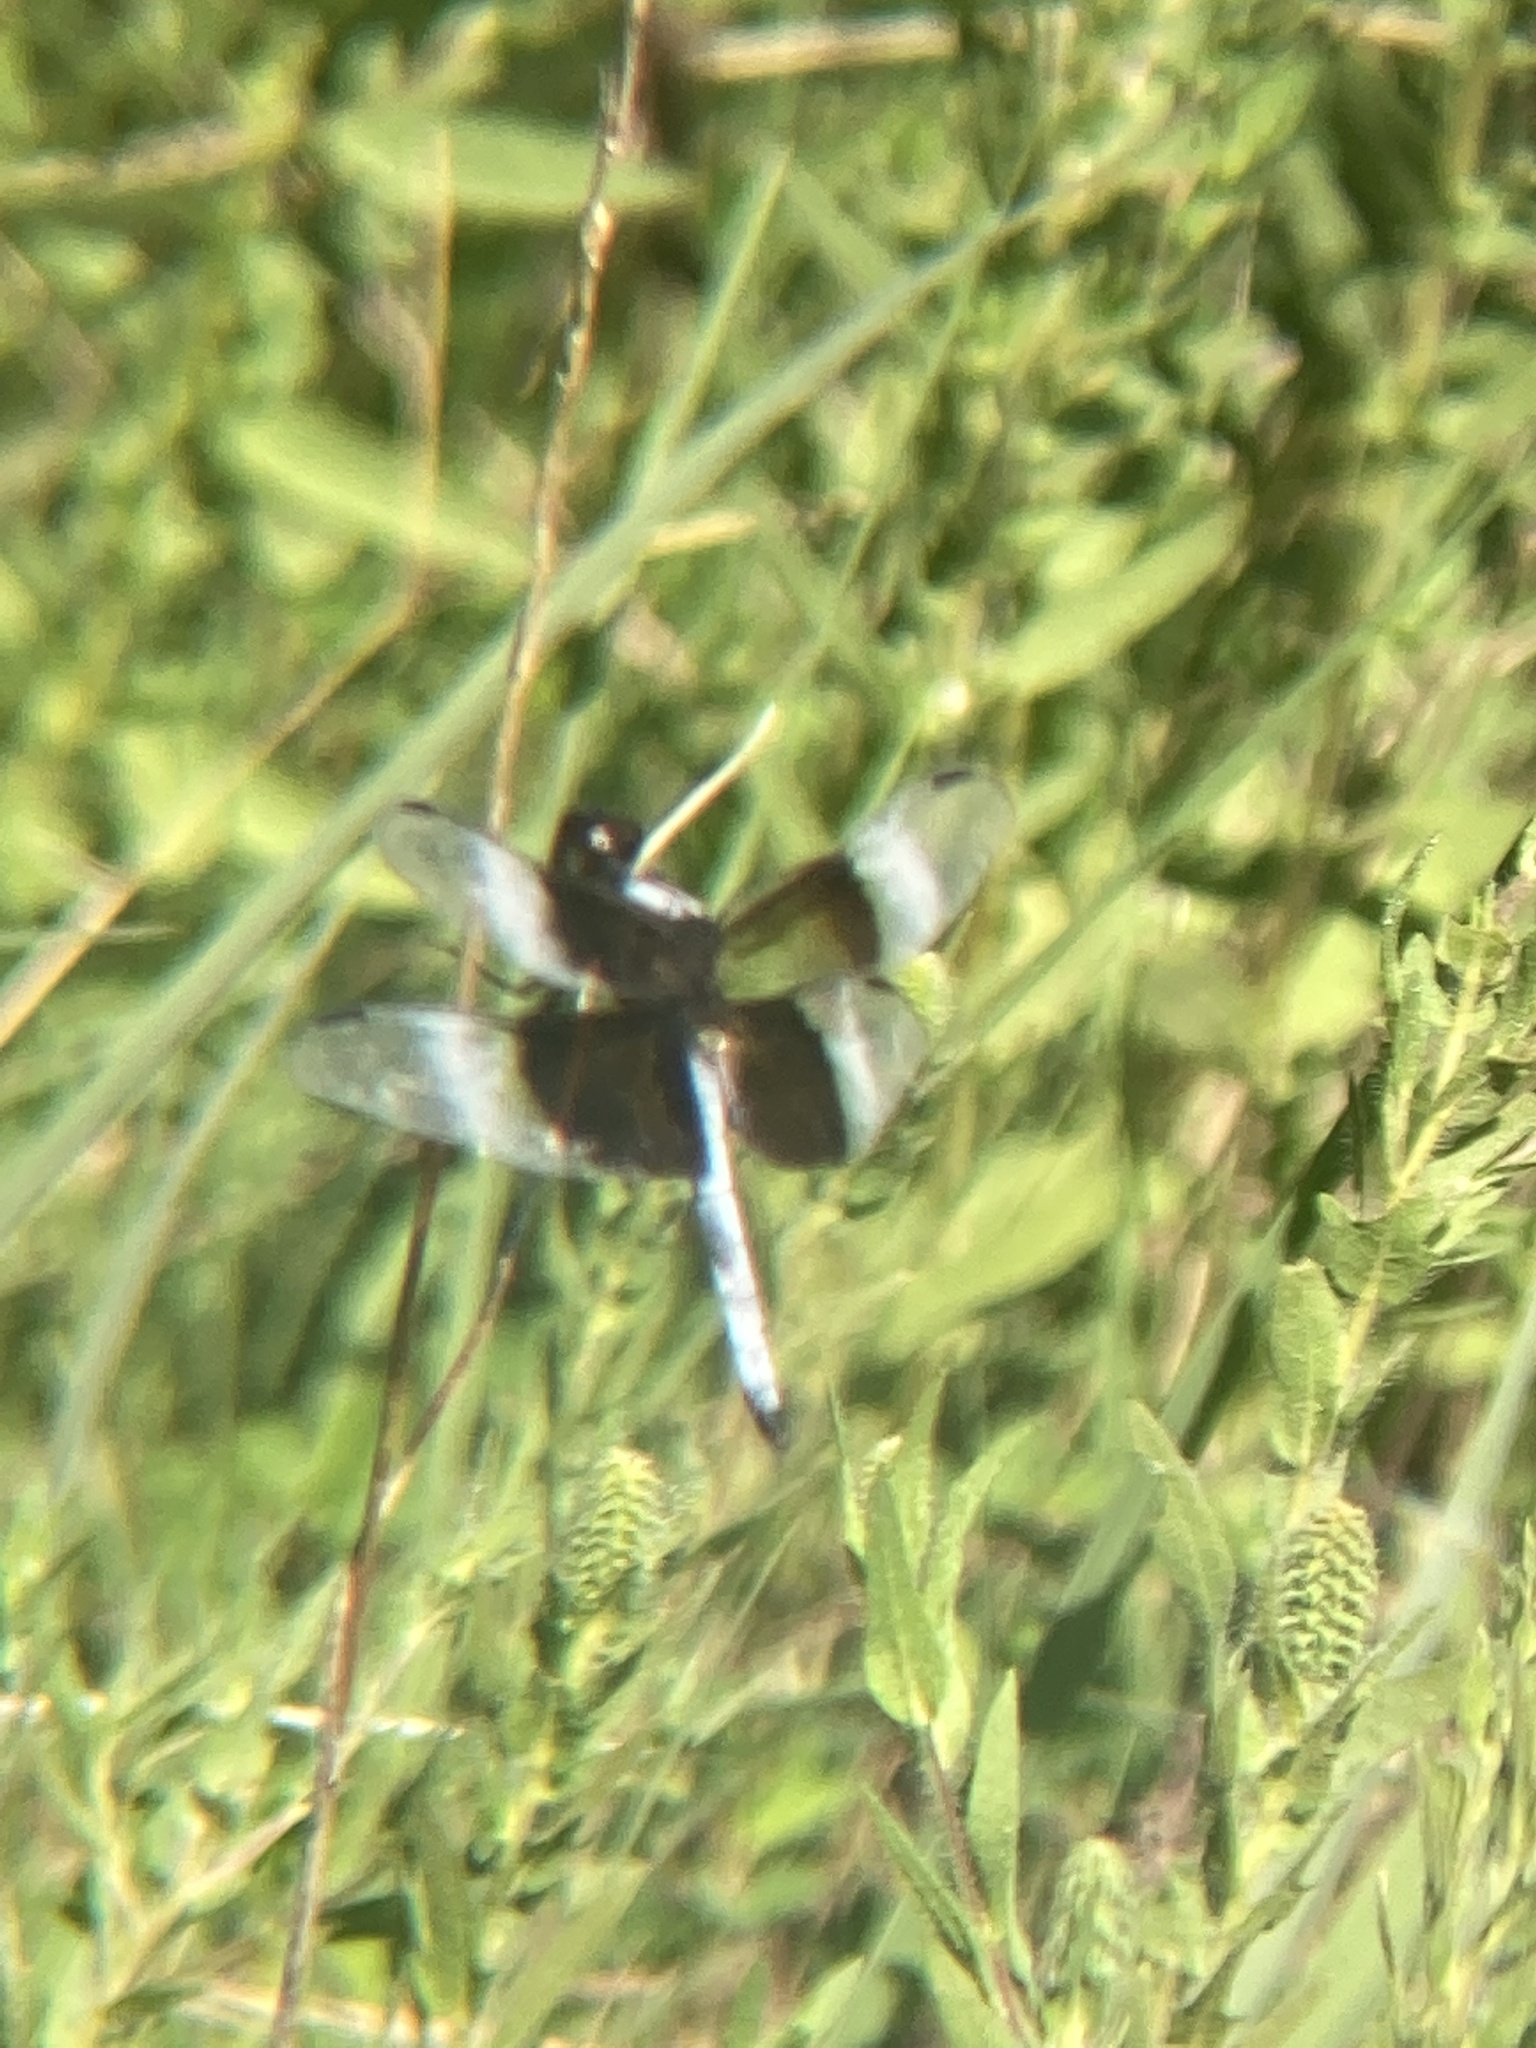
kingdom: Animalia
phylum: Arthropoda
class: Insecta
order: Odonata
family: Libellulidae
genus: Libellula
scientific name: Libellula luctuosa
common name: Widow skimmer
